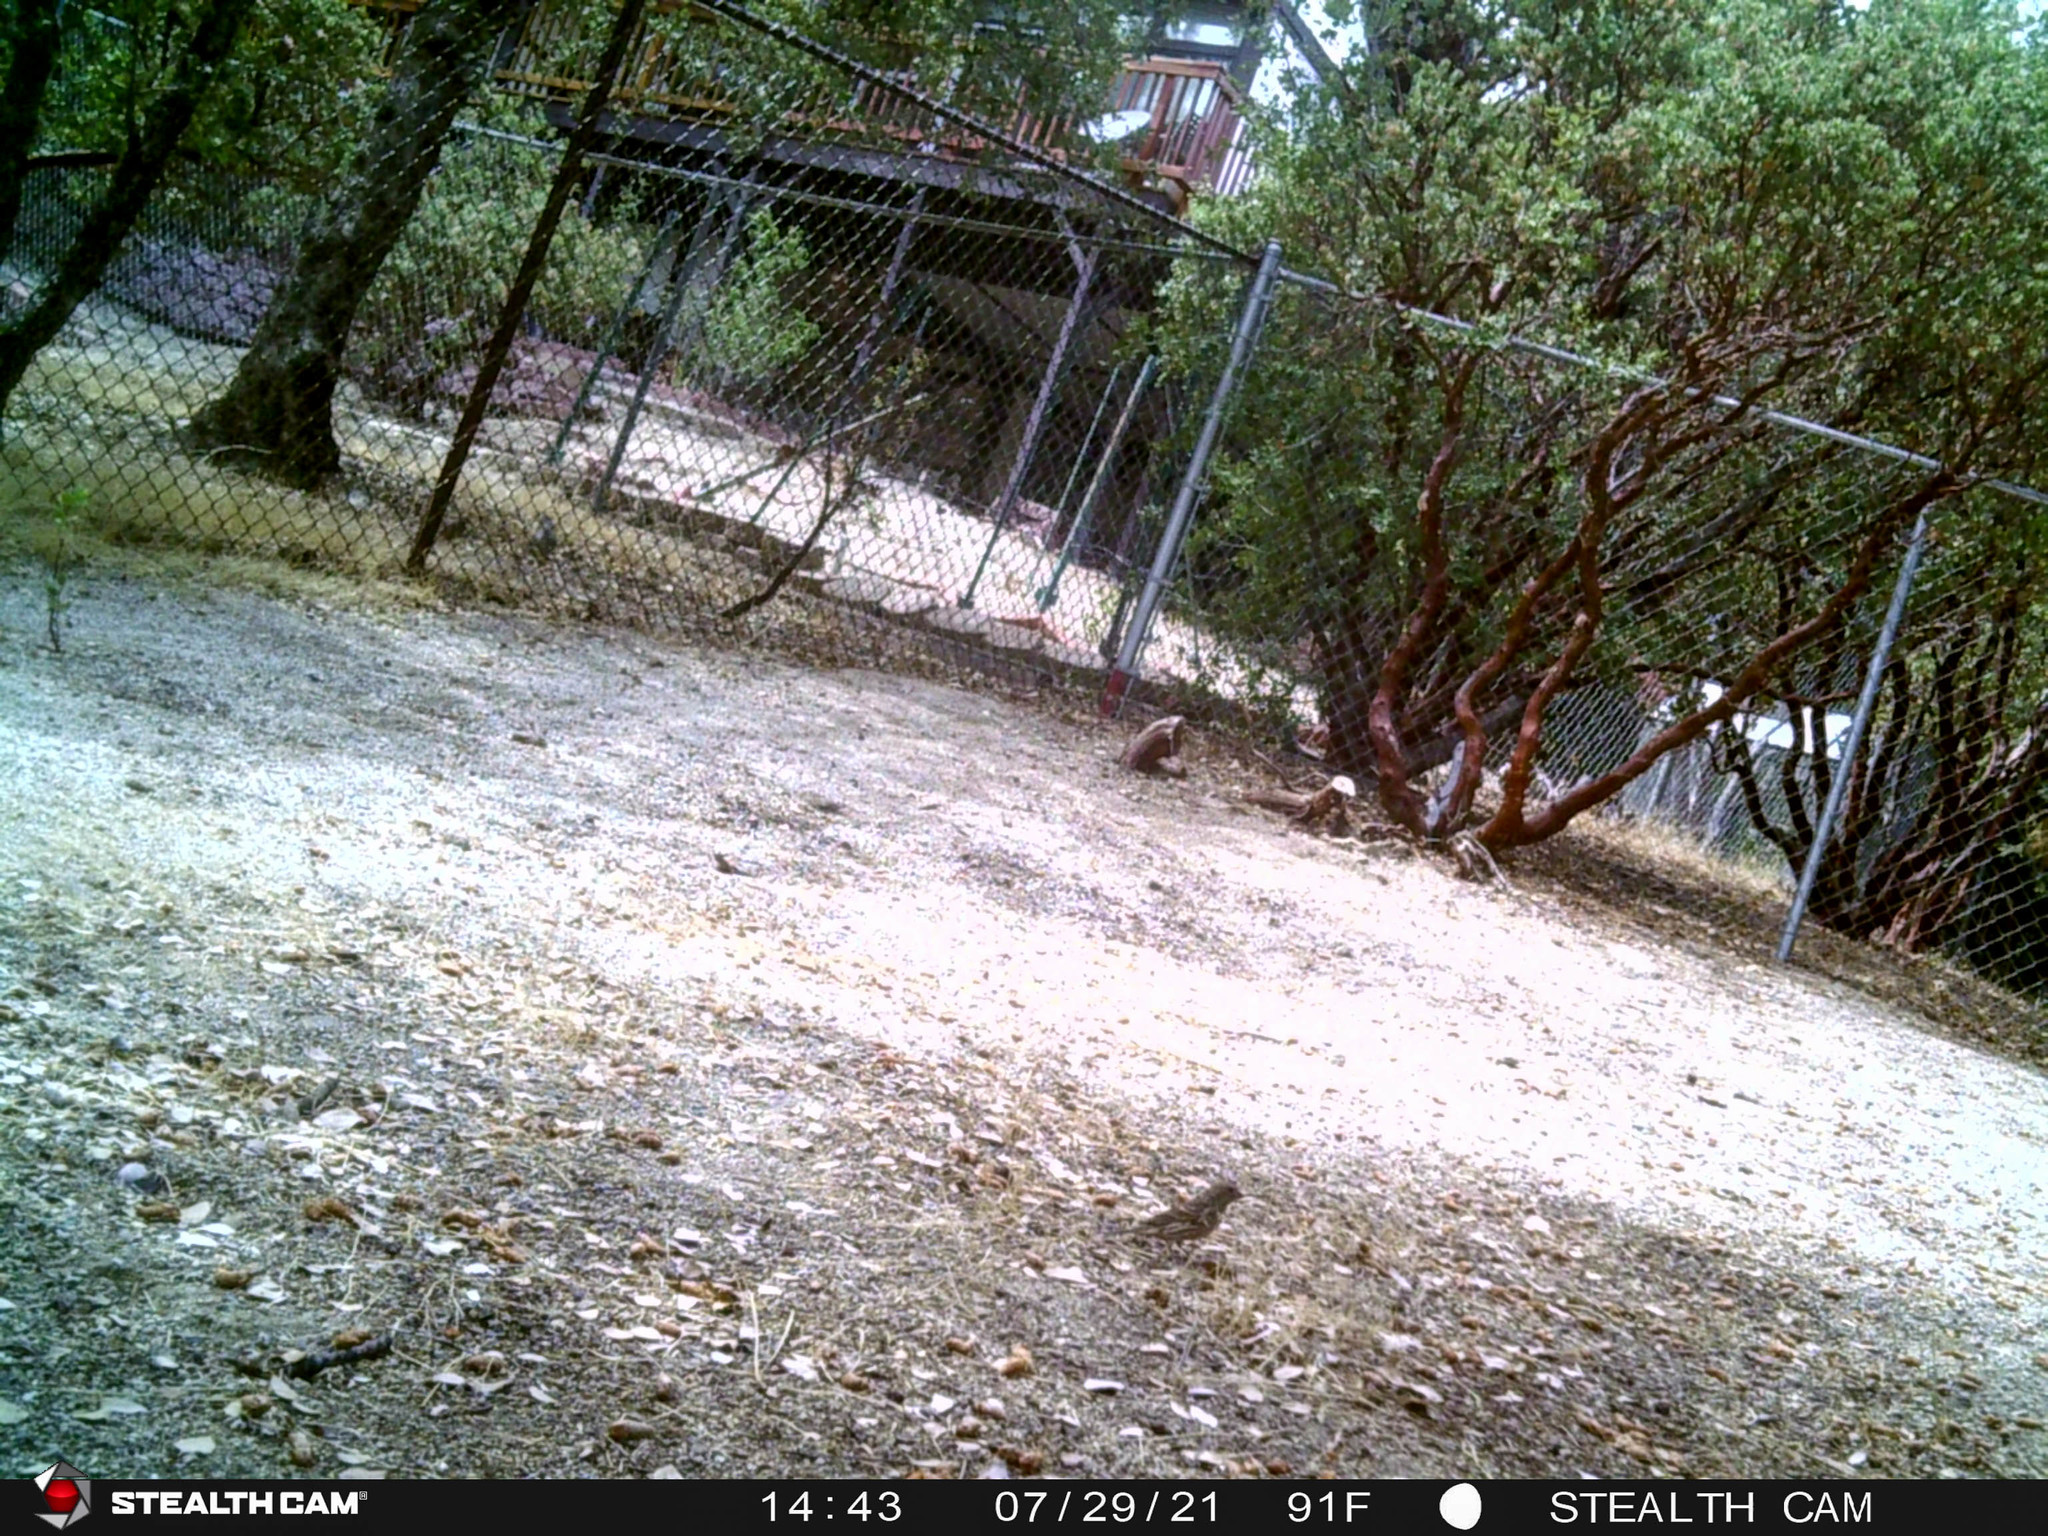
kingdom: Animalia
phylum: Chordata
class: Aves
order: Passeriformes
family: Fringillidae
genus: Haemorhous
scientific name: Haemorhous mexicanus
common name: House finch
